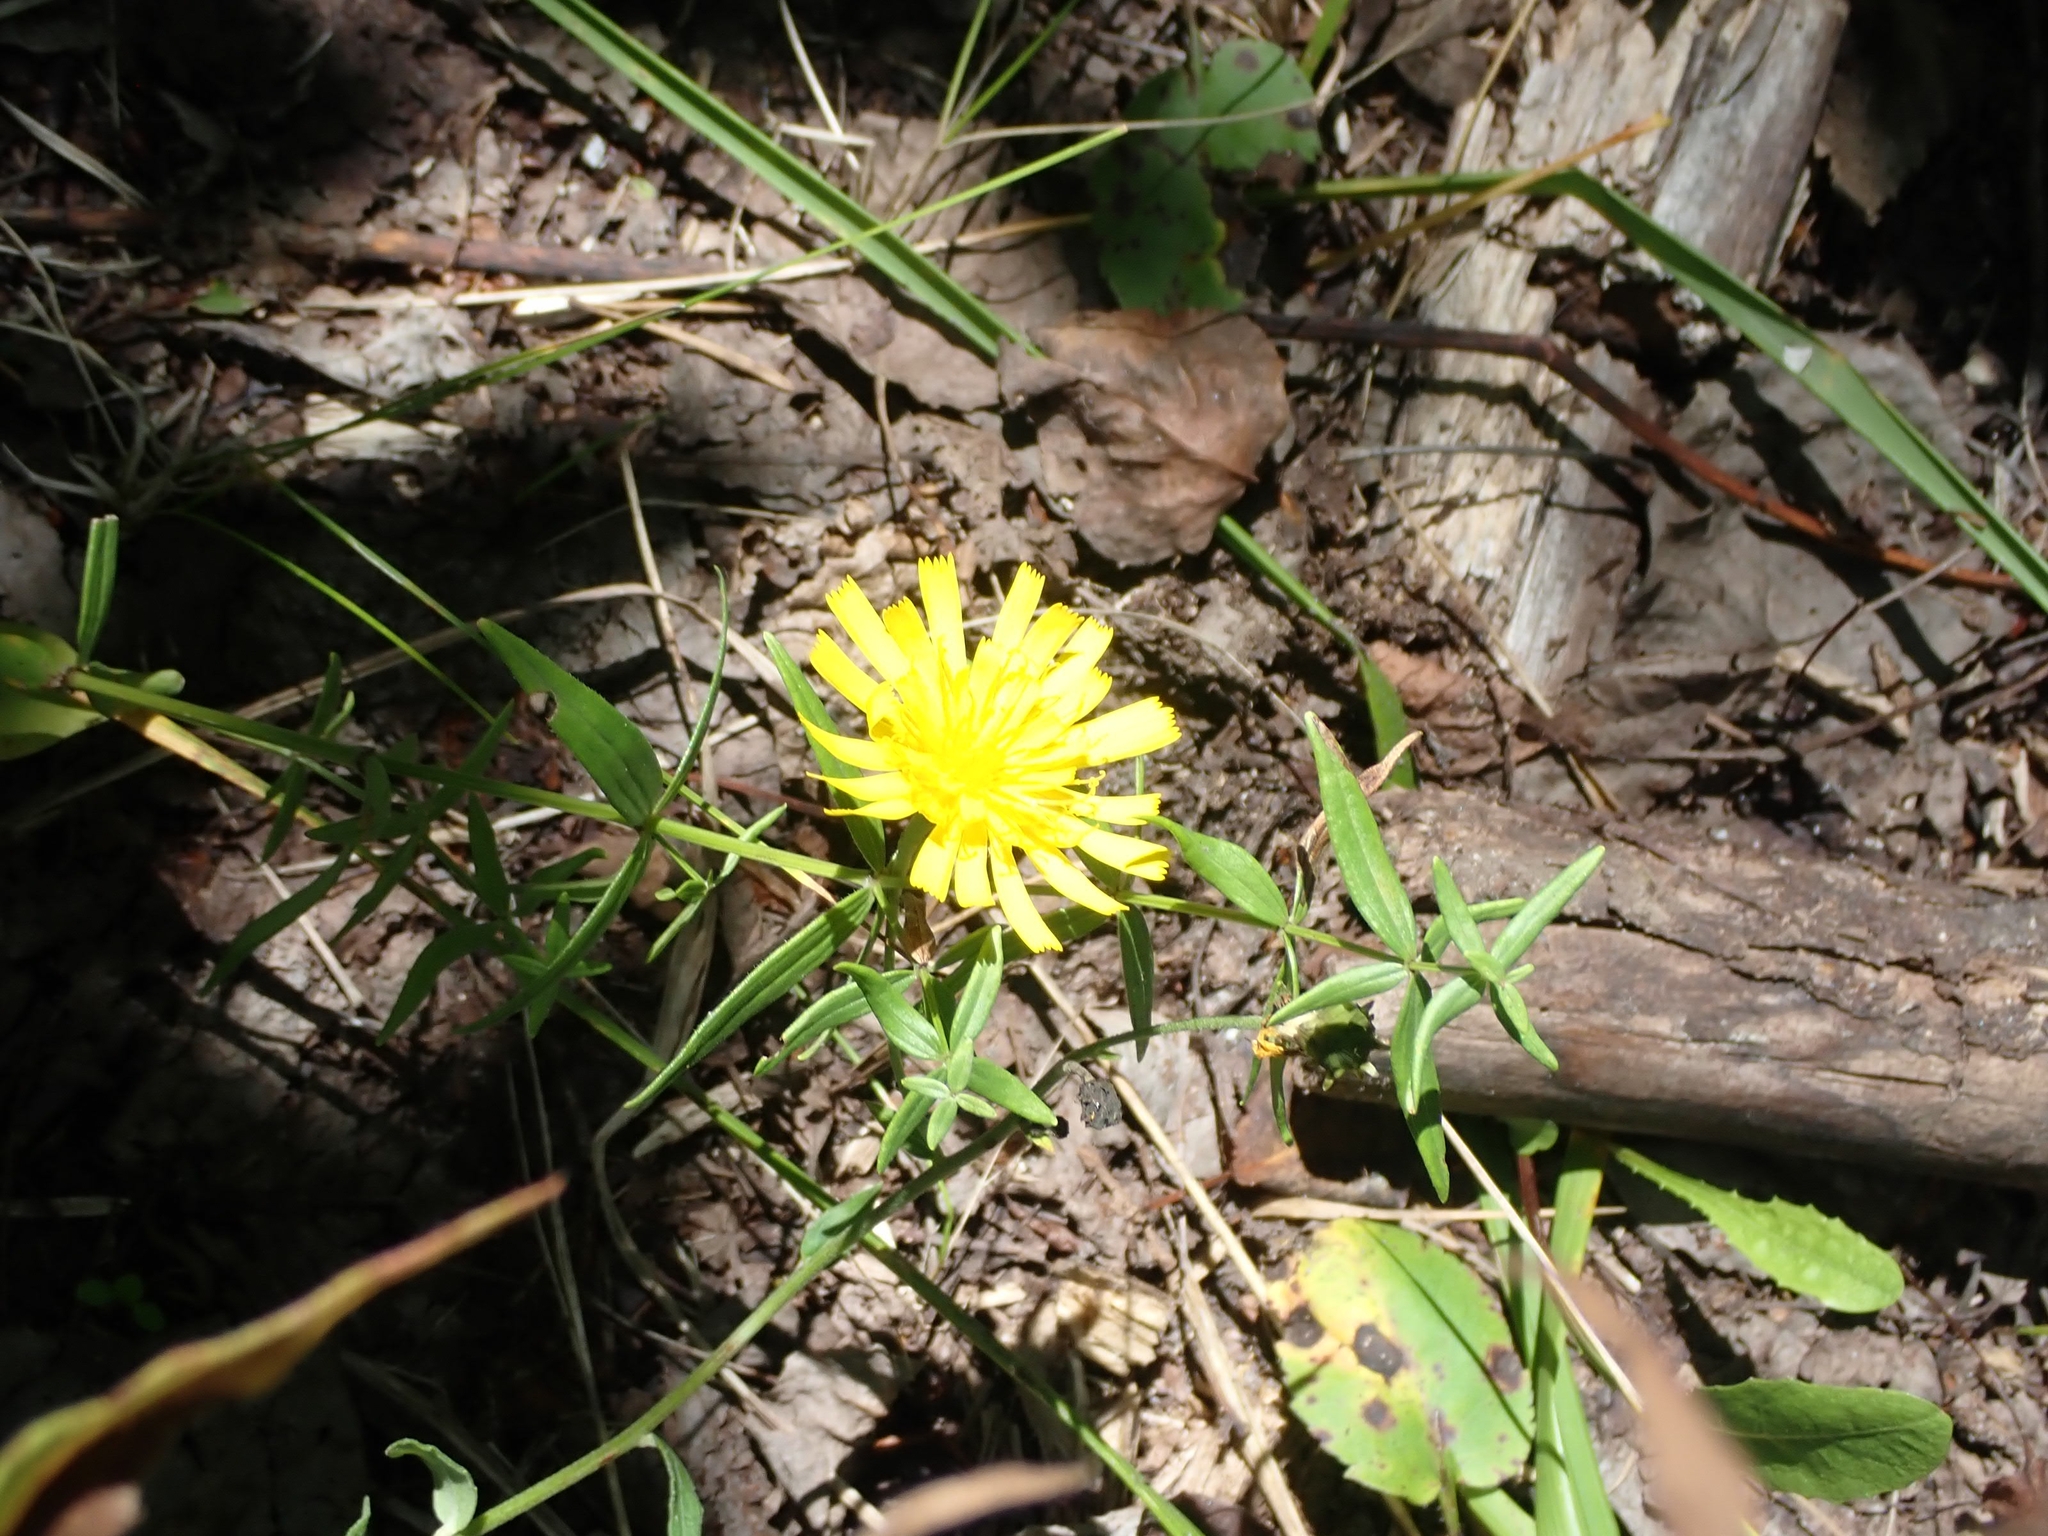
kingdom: Plantae
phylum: Tracheophyta
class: Magnoliopsida
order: Asterales
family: Asteraceae
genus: Hieracium
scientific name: Hieracium umbellatum
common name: Northern hawkweed
